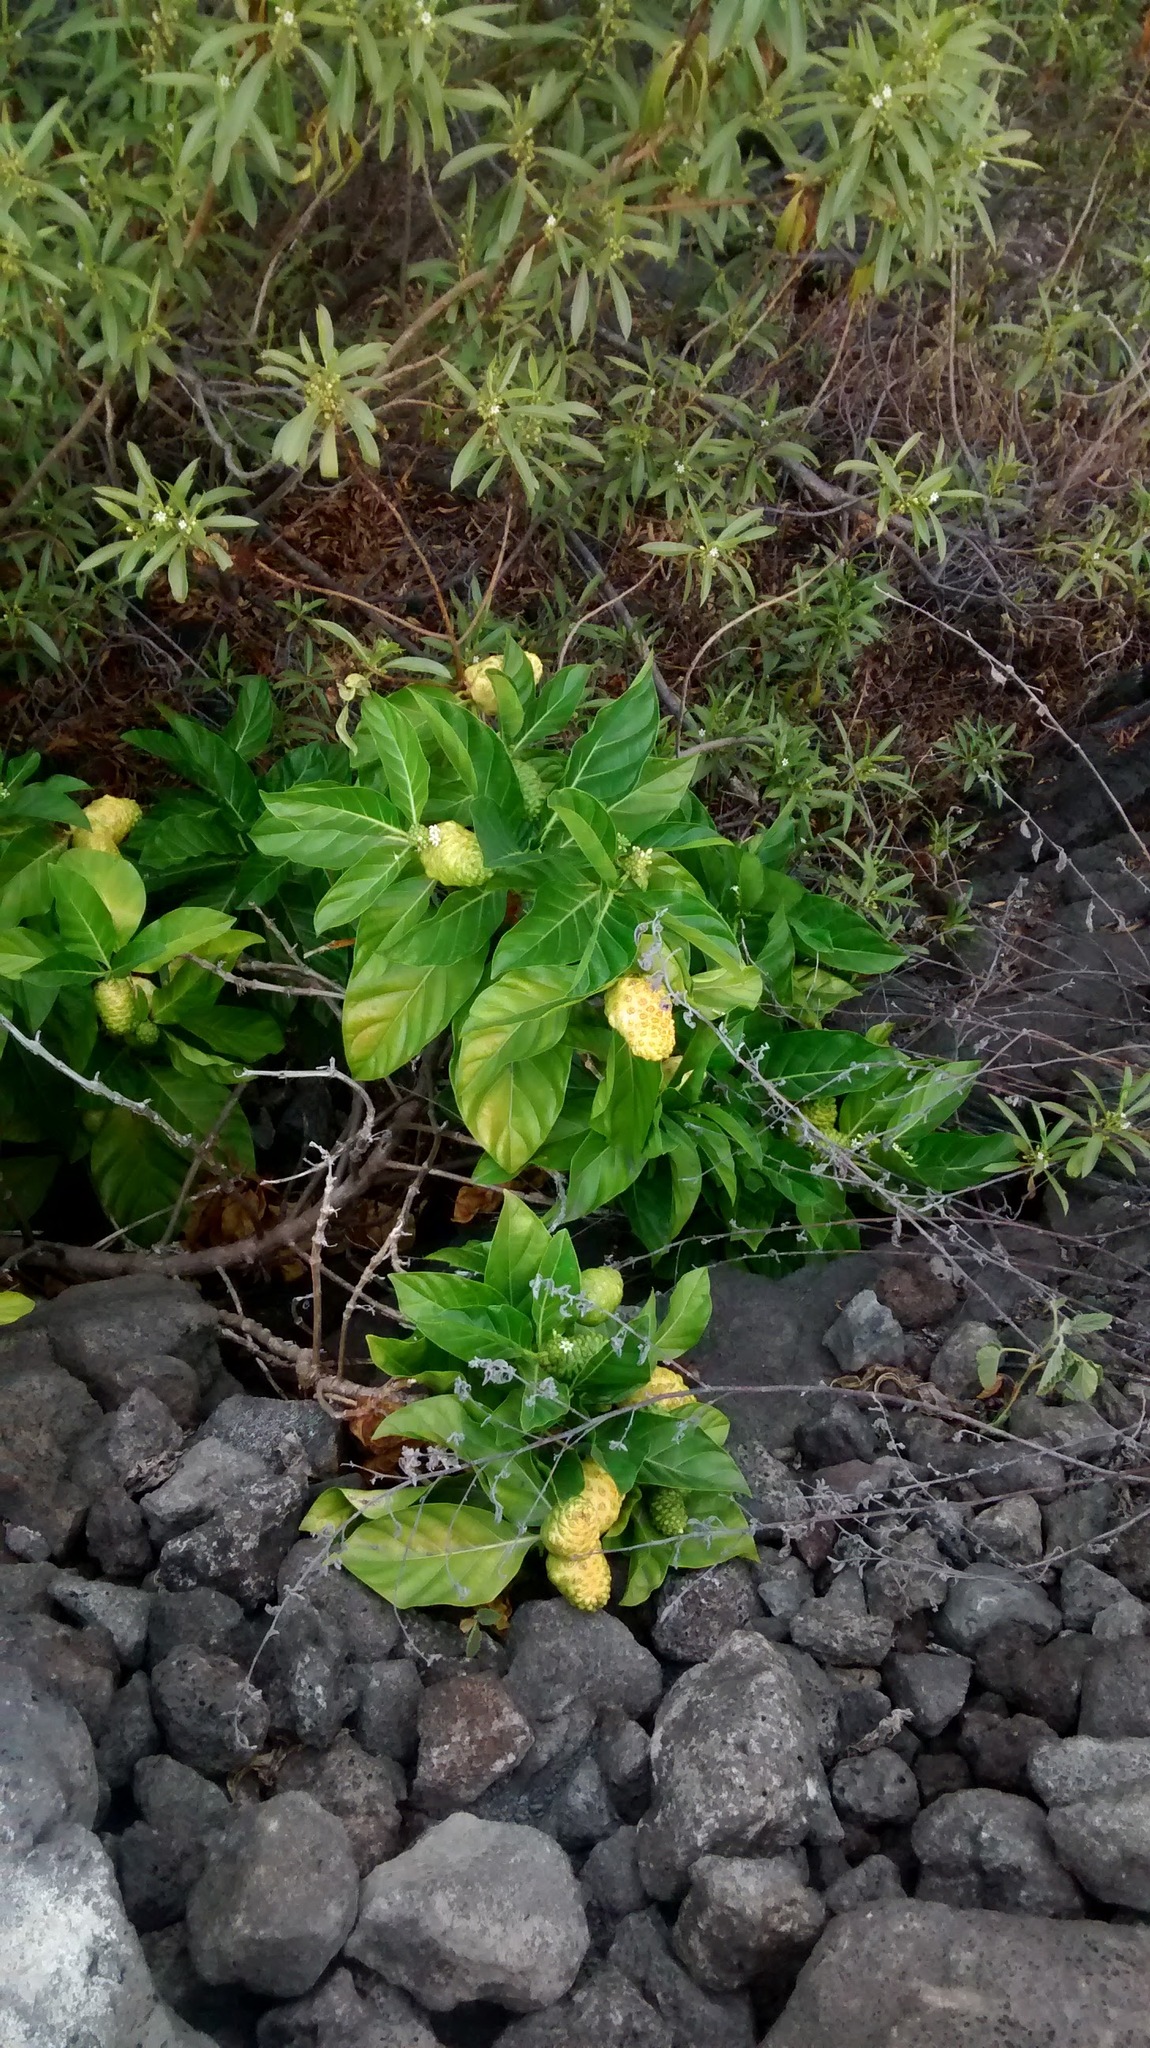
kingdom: Plantae
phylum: Tracheophyta
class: Magnoliopsida
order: Gentianales
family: Rubiaceae
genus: Morinda
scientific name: Morinda citrifolia
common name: Indian-mulberry
